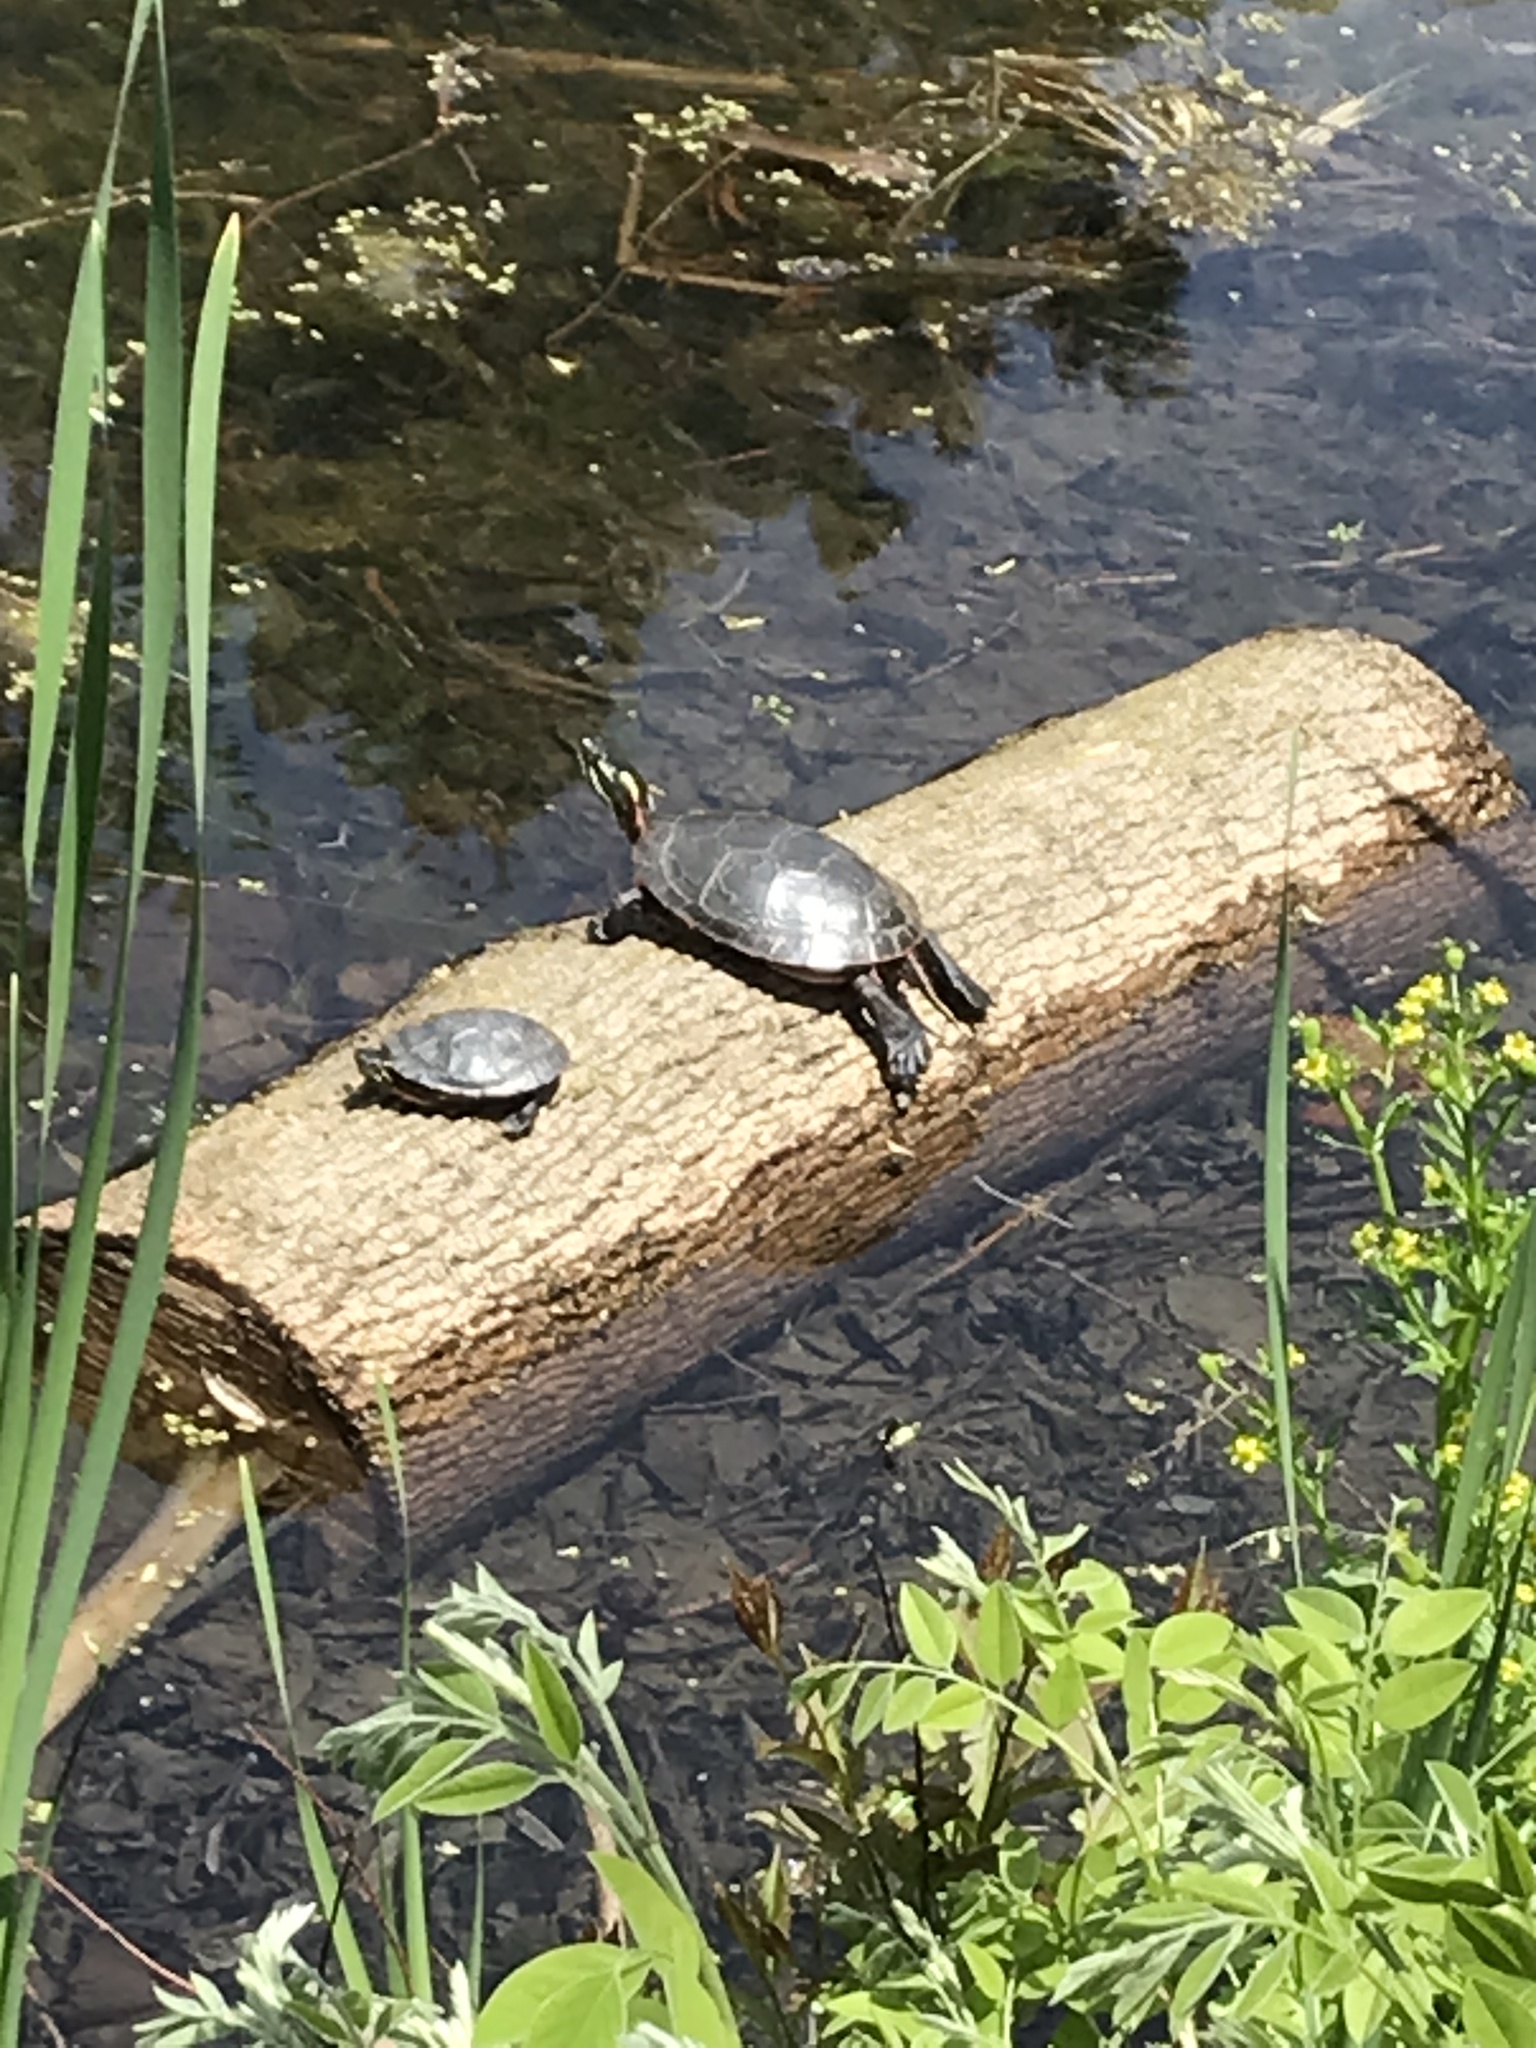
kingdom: Animalia
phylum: Chordata
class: Testudines
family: Emydidae
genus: Chrysemys
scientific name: Chrysemys picta
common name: Painted turtle
